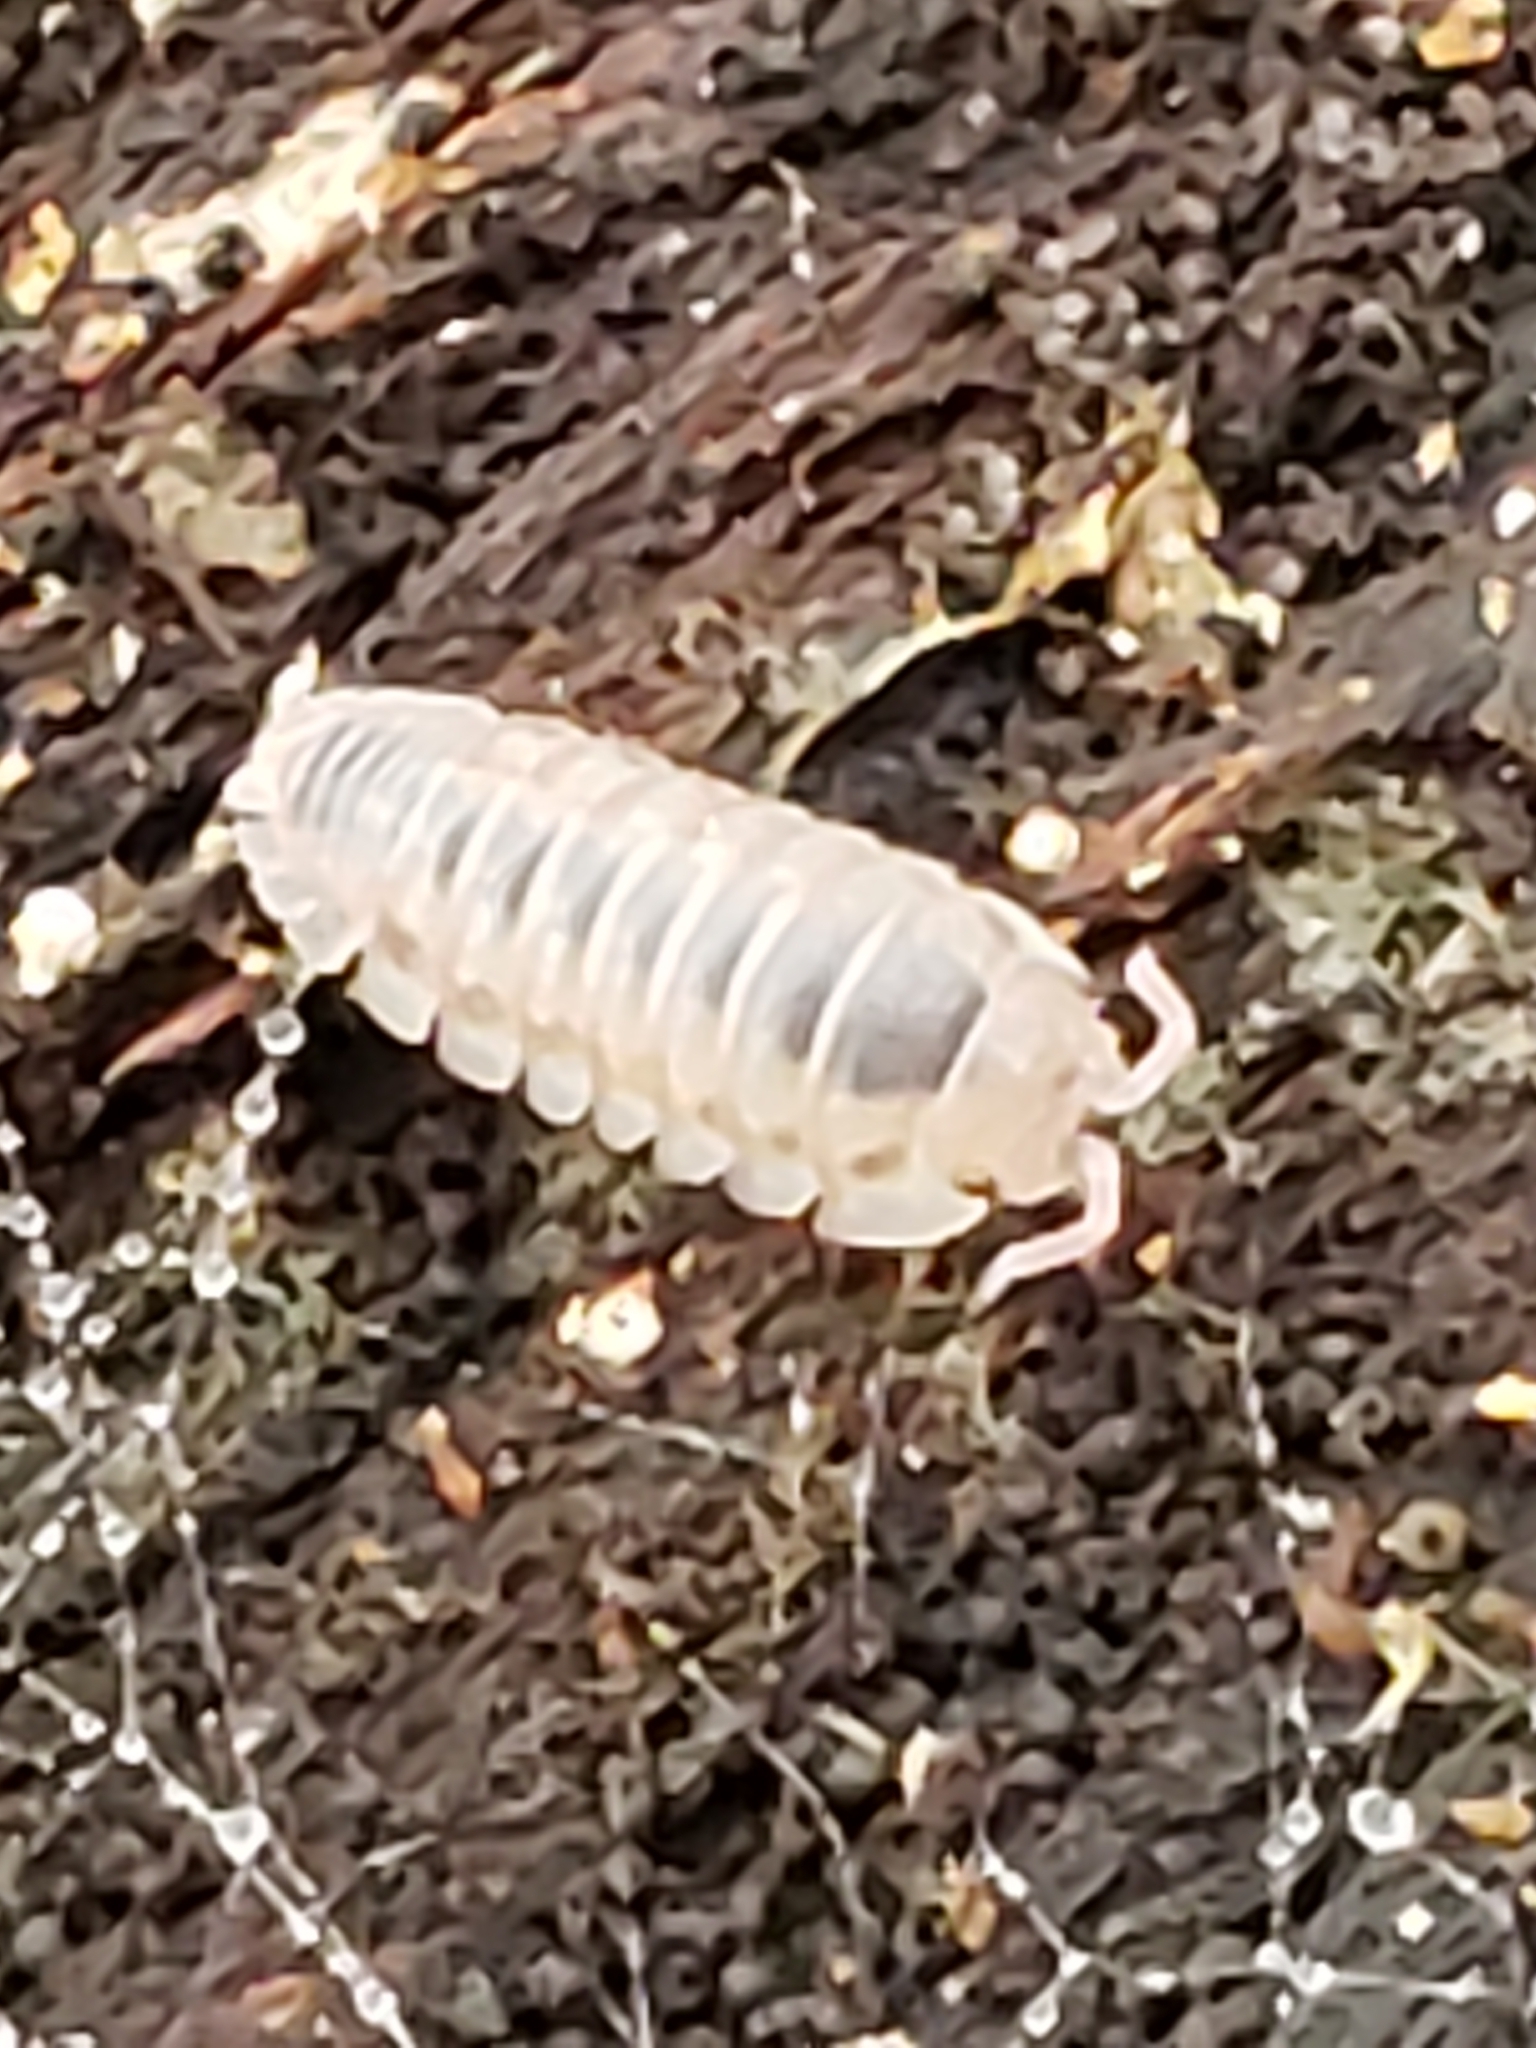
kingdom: Animalia
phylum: Arthropoda
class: Malacostraca
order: Isopoda
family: Armadillidiidae
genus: Armadillidium
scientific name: Armadillidium nasatum
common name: Isopod
